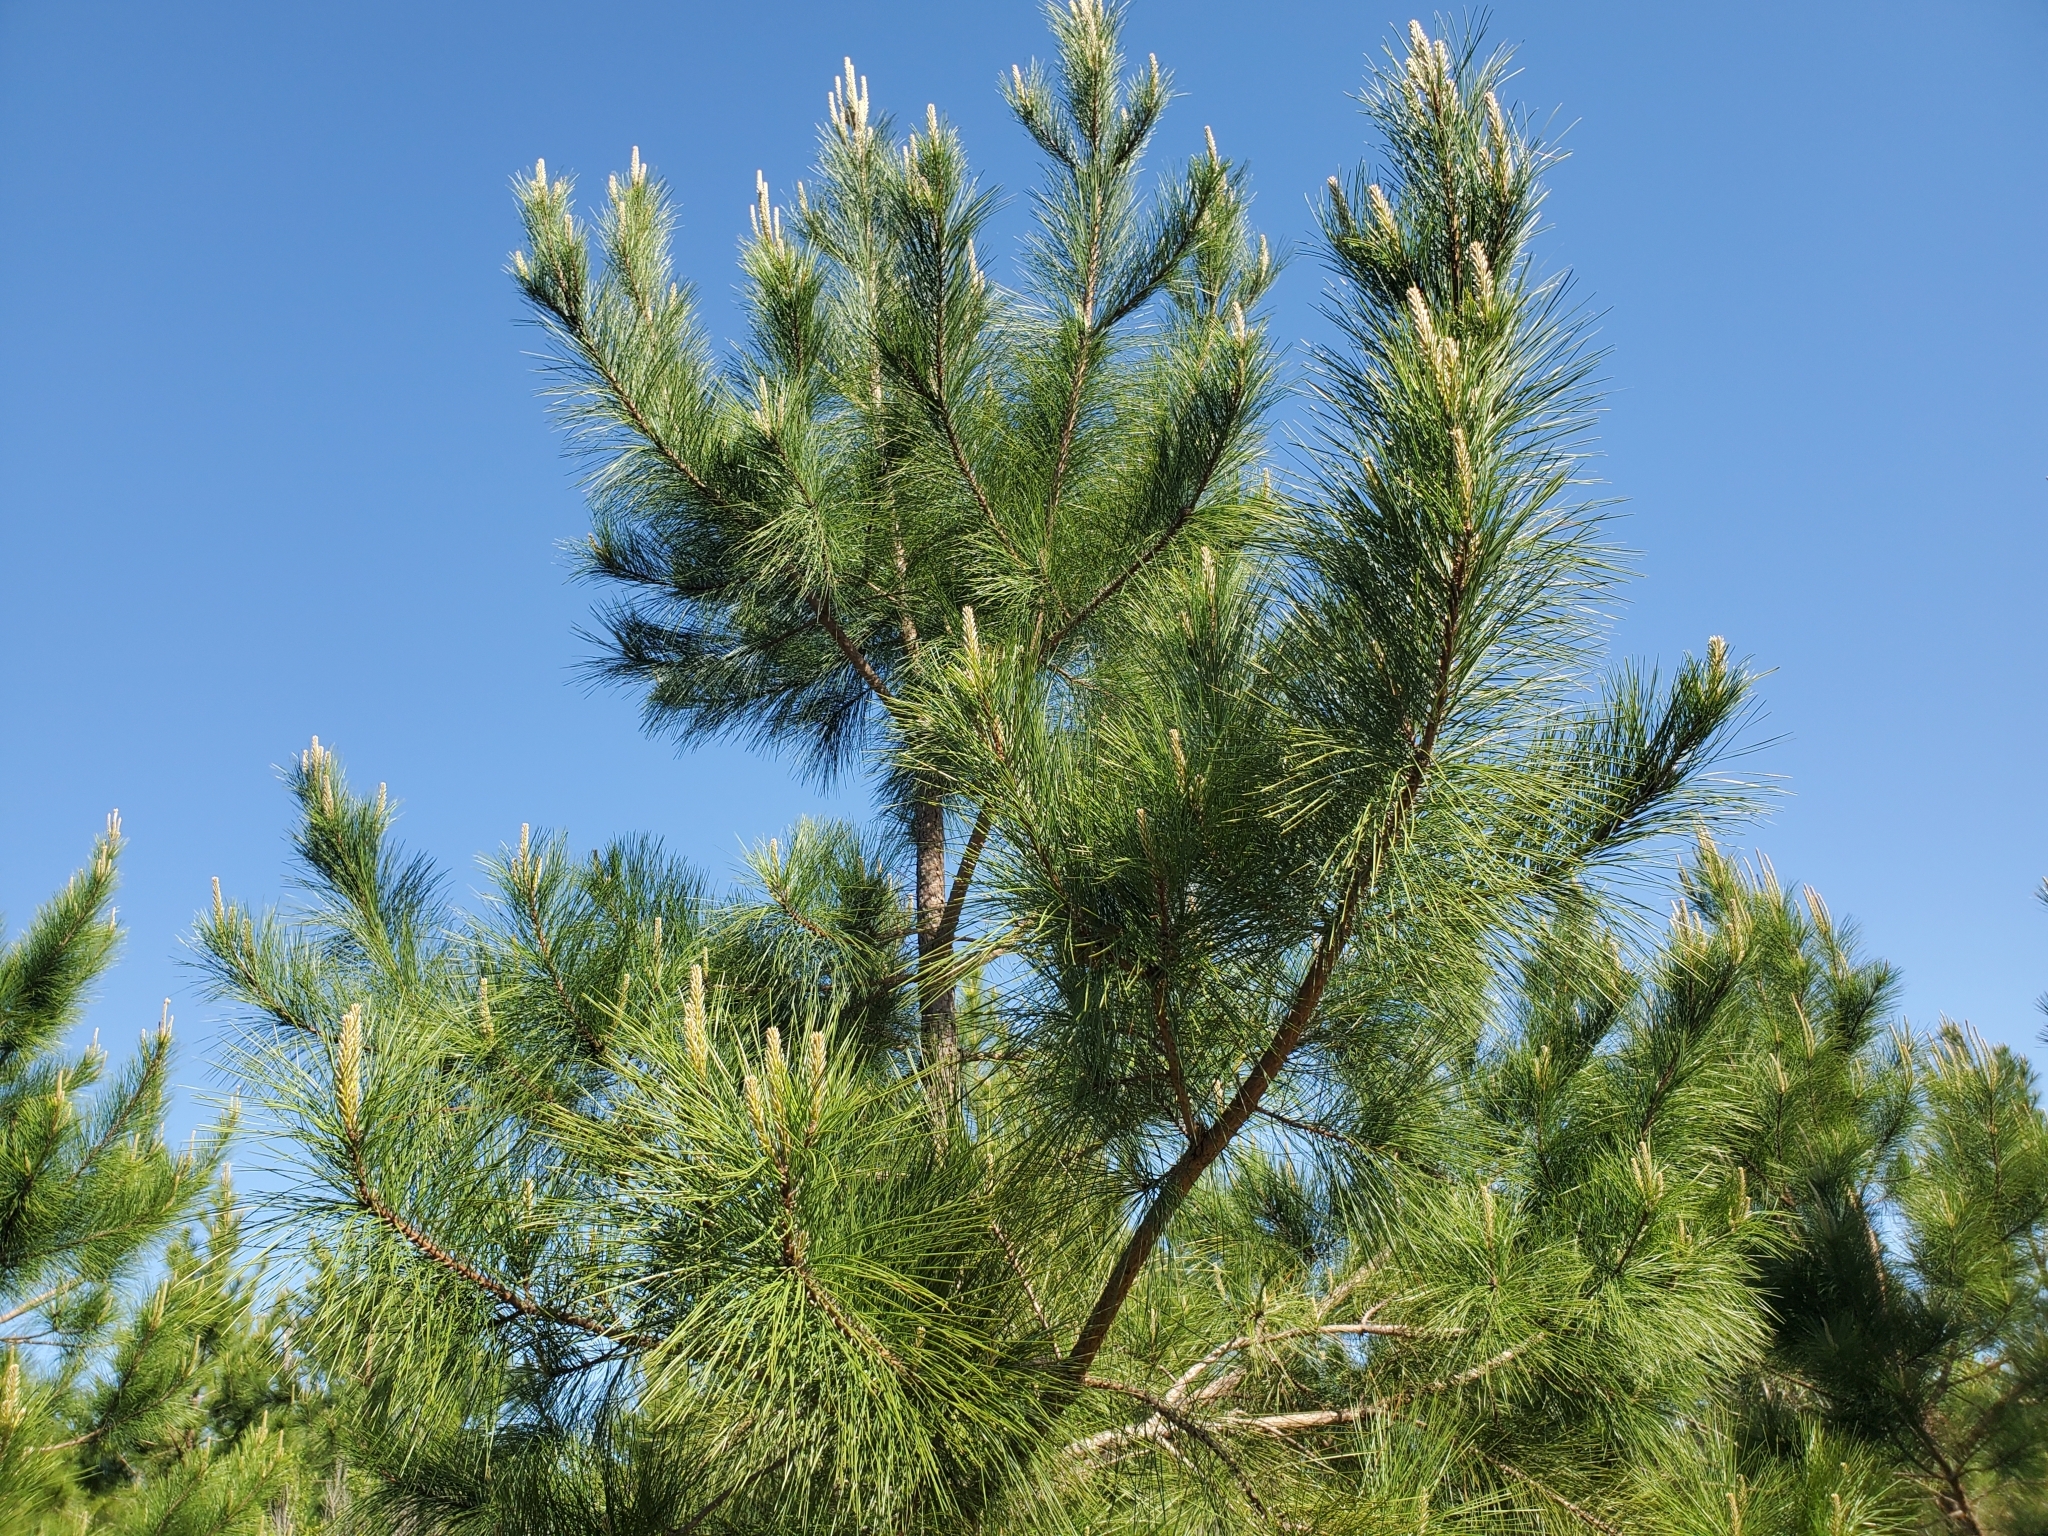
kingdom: Plantae
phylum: Tracheophyta
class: Pinopsida
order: Pinales
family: Pinaceae
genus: Pinus
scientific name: Pinus taeda
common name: Loblolly pine
